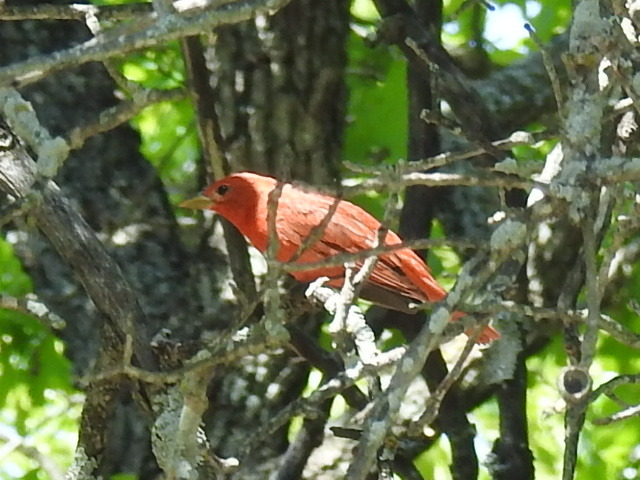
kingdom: Animalia
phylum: Chordata
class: Aves
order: Passeriformes
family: Cardinalidae
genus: Piranga
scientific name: Piranga rubra
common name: Summer tanager
